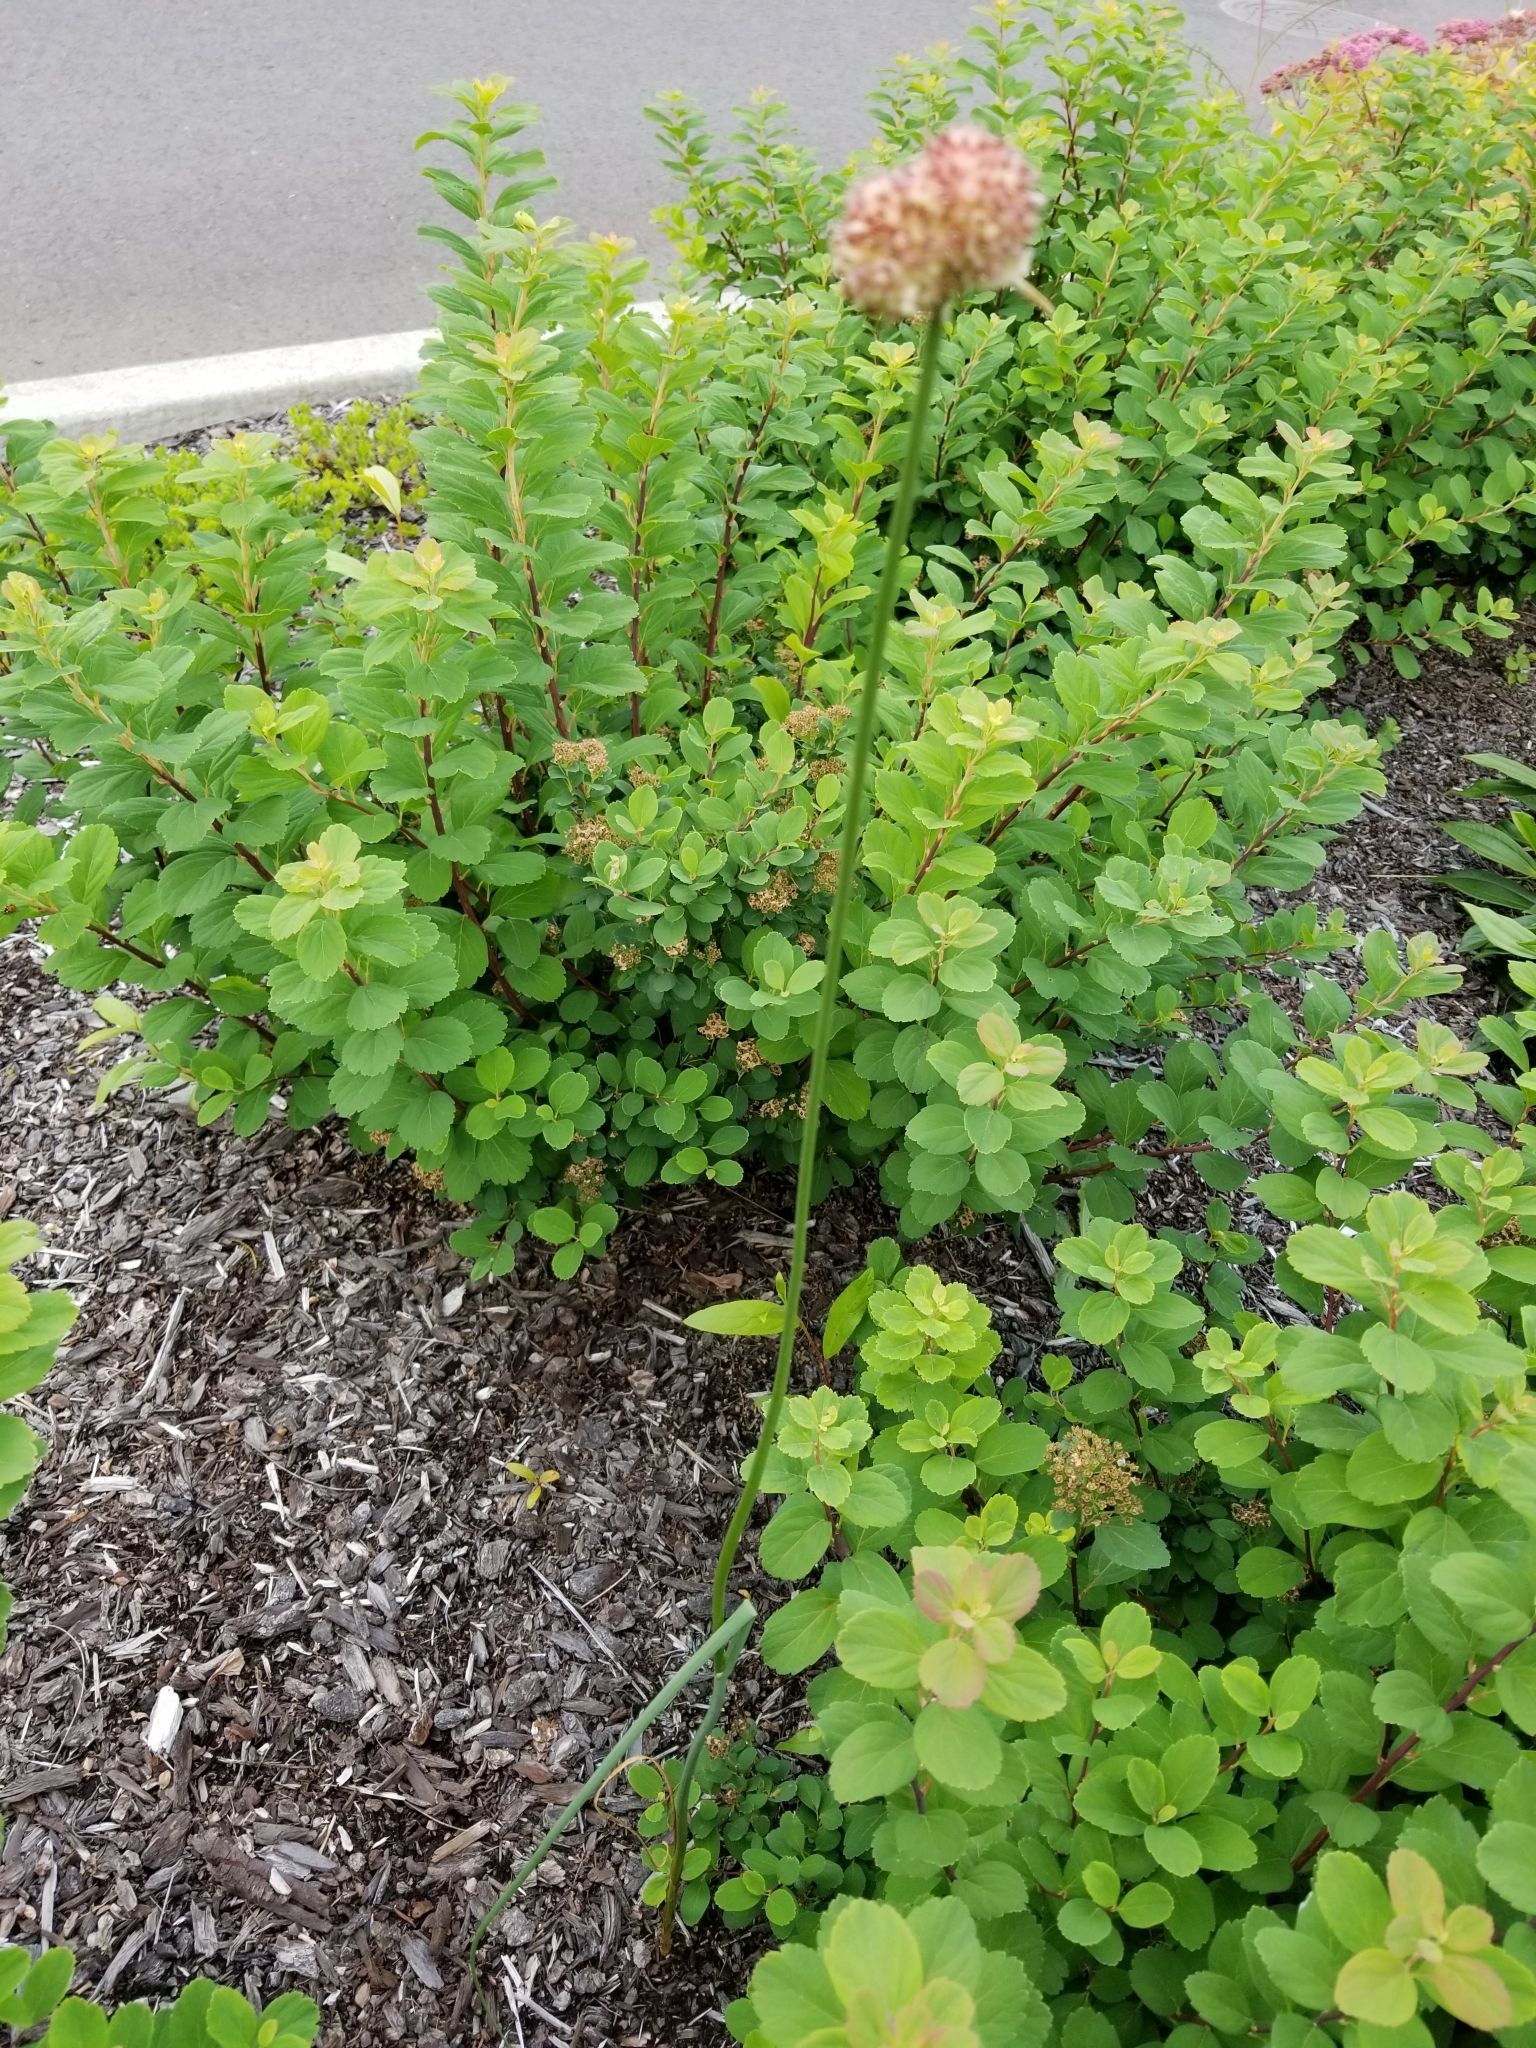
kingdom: Plantae
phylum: Tracheophyta
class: Liliopsida
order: Asparagales
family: Amaryllidaceae
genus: Allium
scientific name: Allium vineale
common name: Crow garlic
